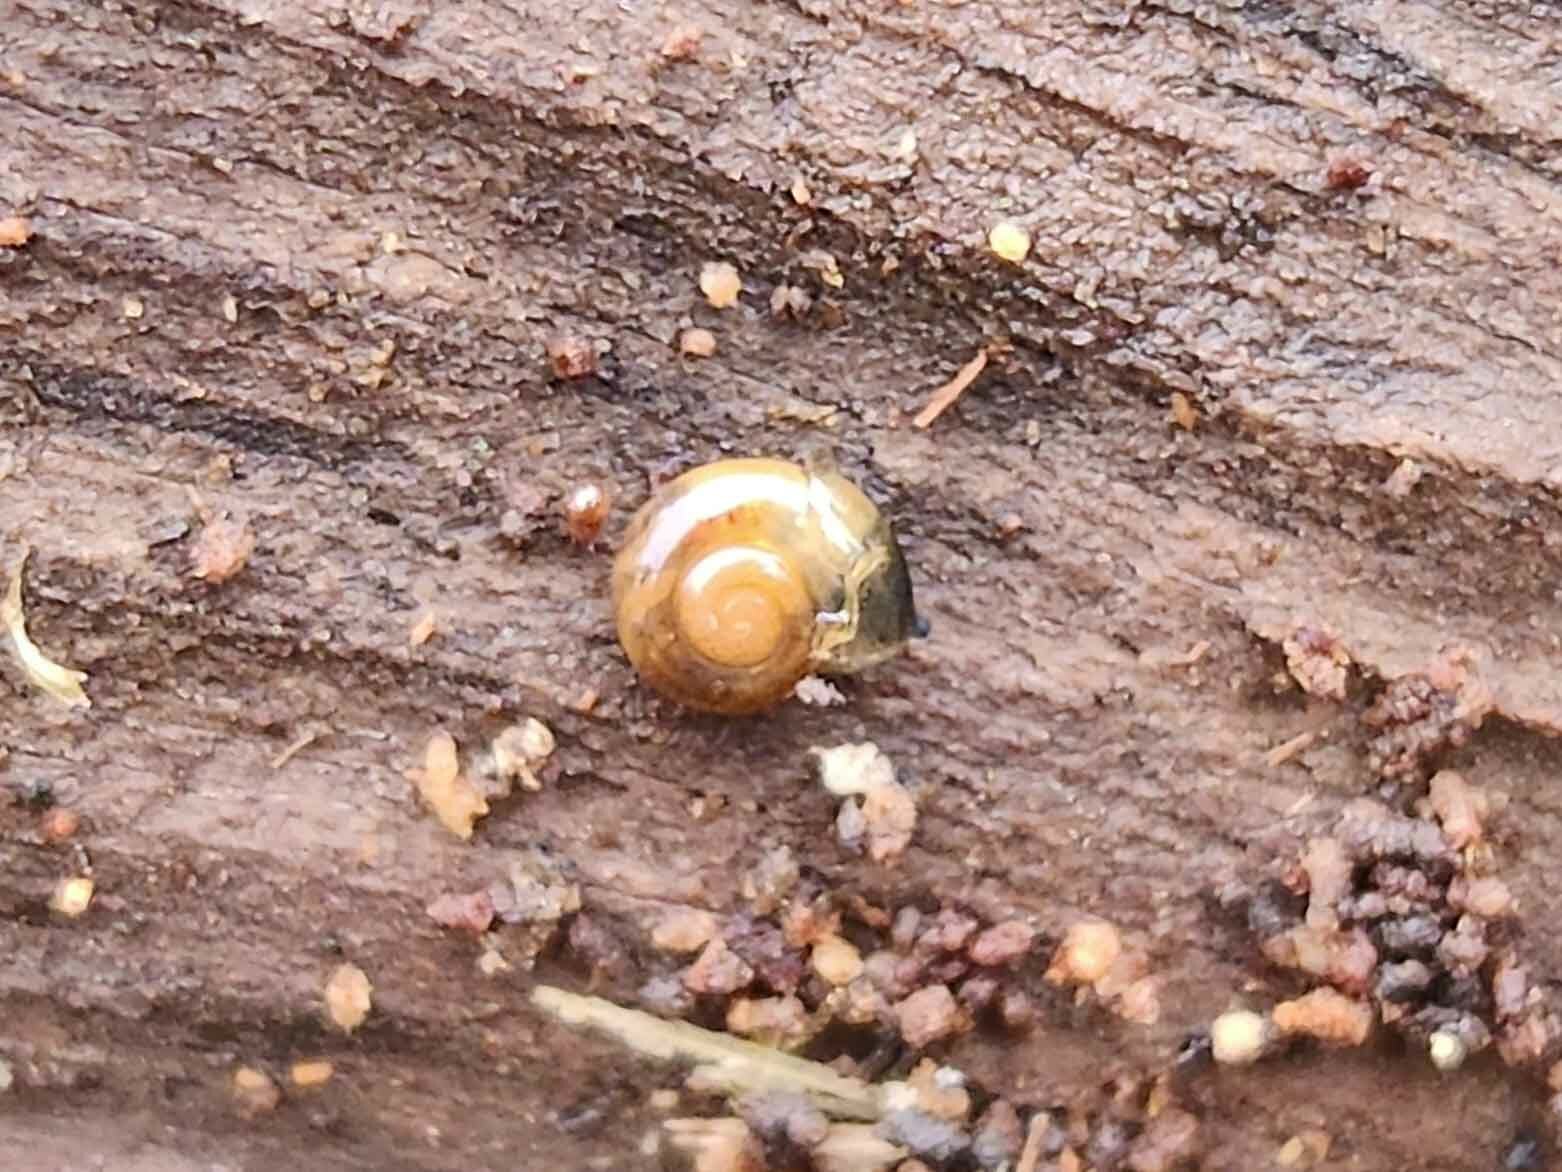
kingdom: Animalia
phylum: Mollusca
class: Gastropoda
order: Stylommatophora
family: Oxychilidae
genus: Oxychilus
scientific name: Oxychilus alliarius
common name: Garlic glass-snail
